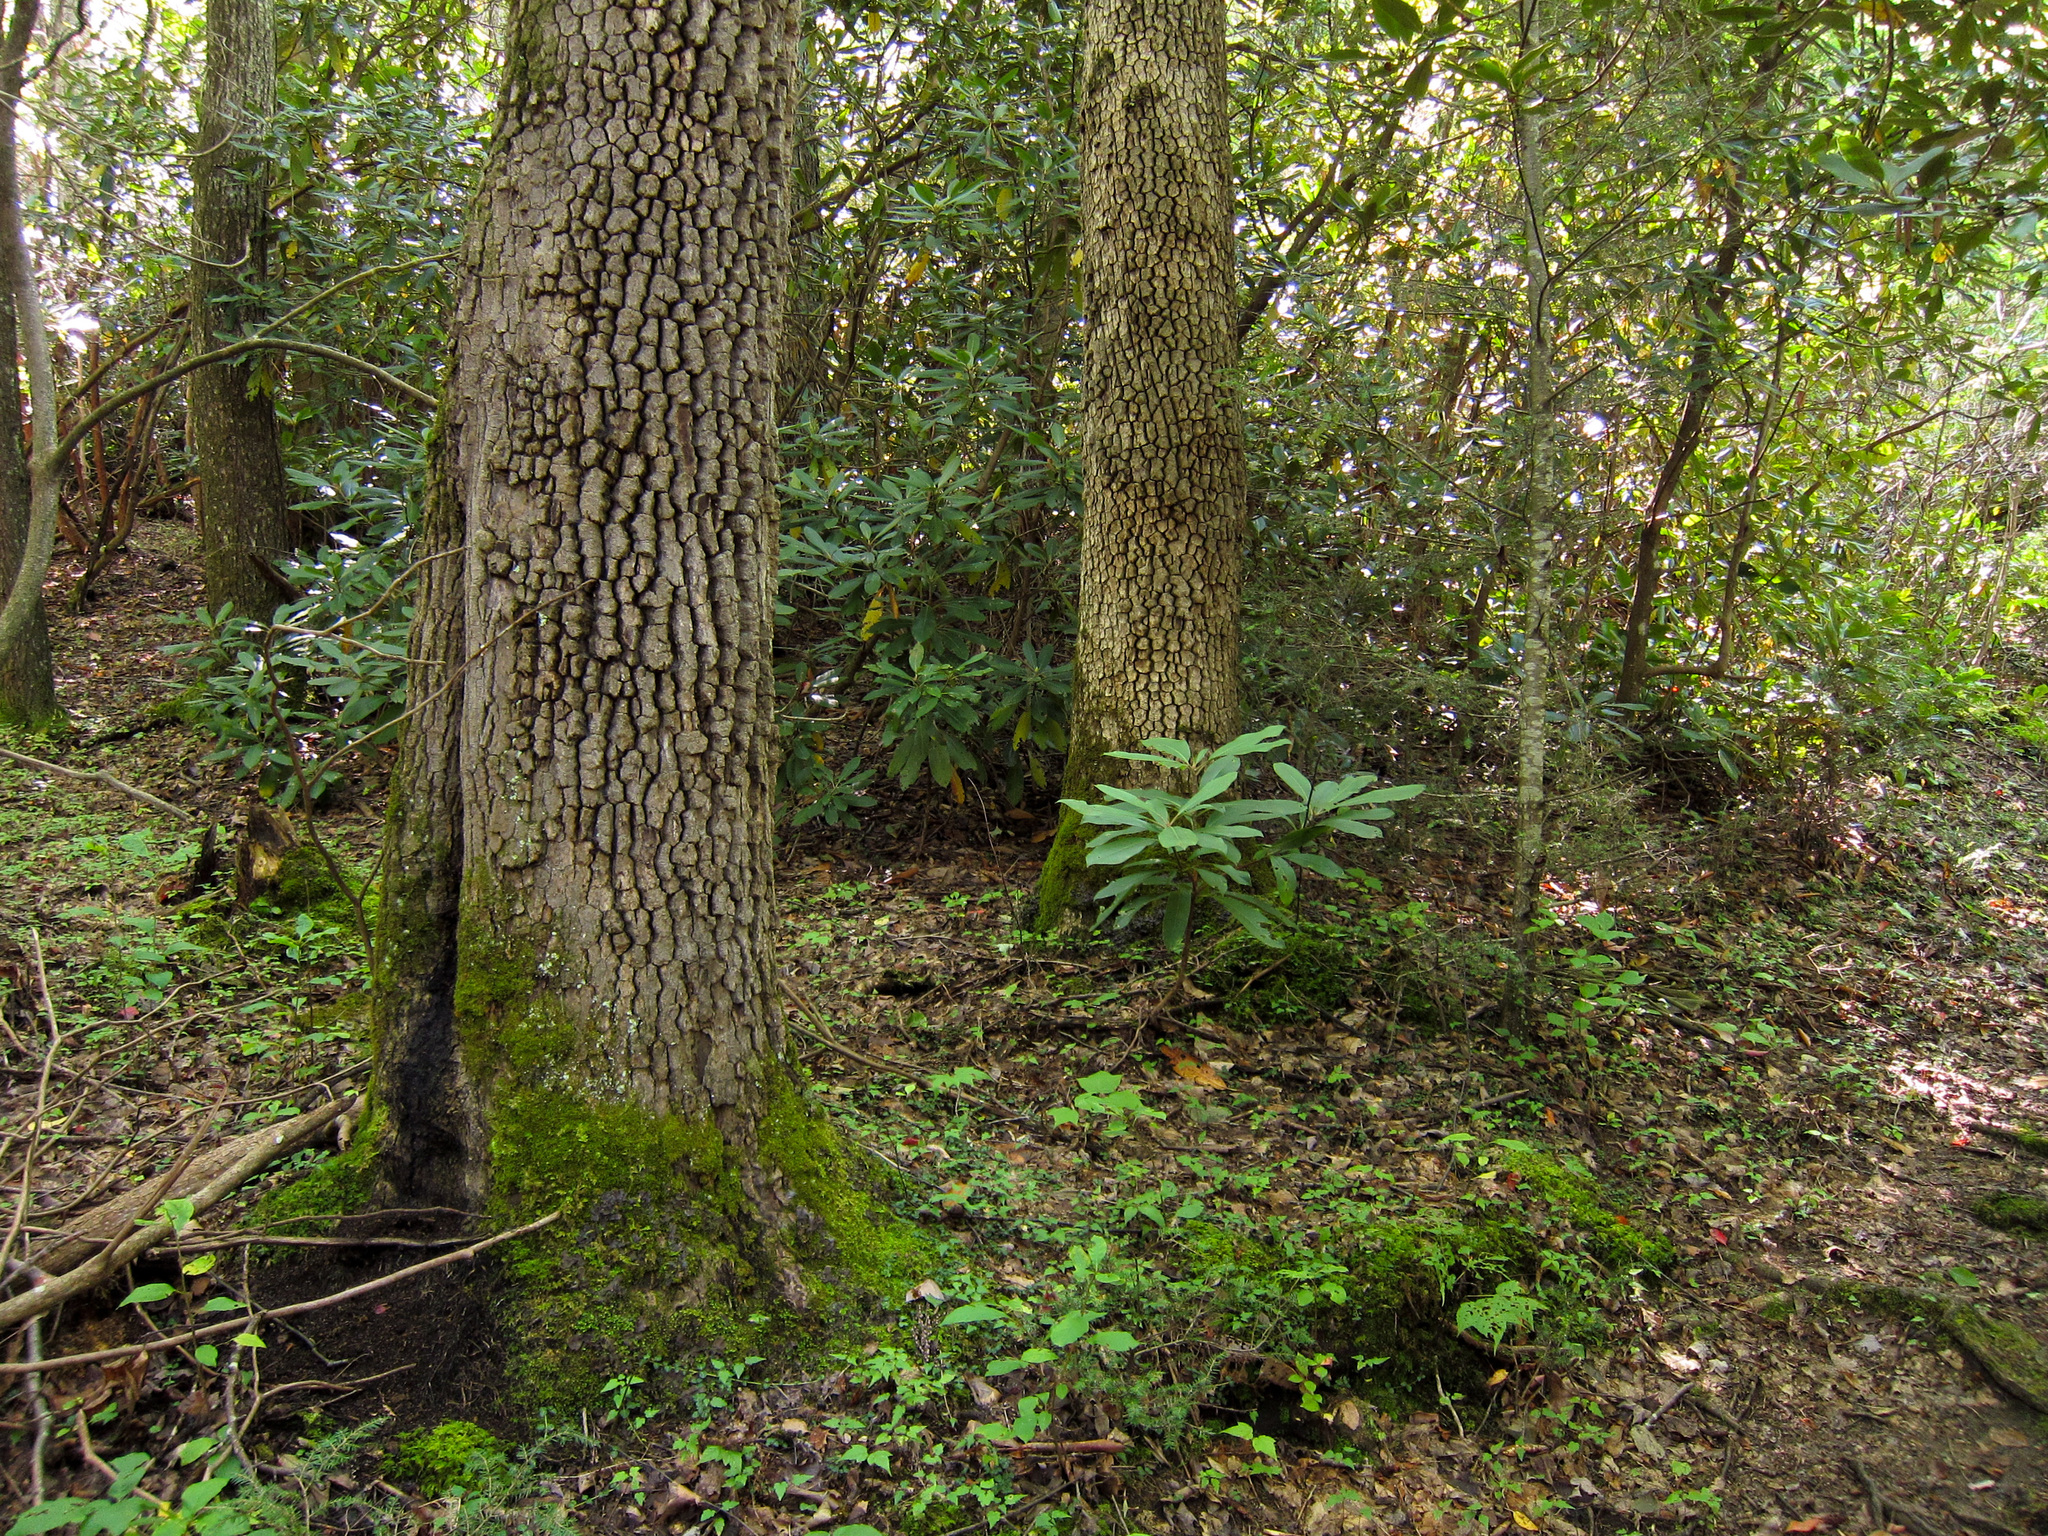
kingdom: Plantae
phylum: Tracheophyta
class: Magnoliopsida
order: Cornales
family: Nyssaceae
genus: Nyssa
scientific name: Nyssa sylvatica
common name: Black tupelo
